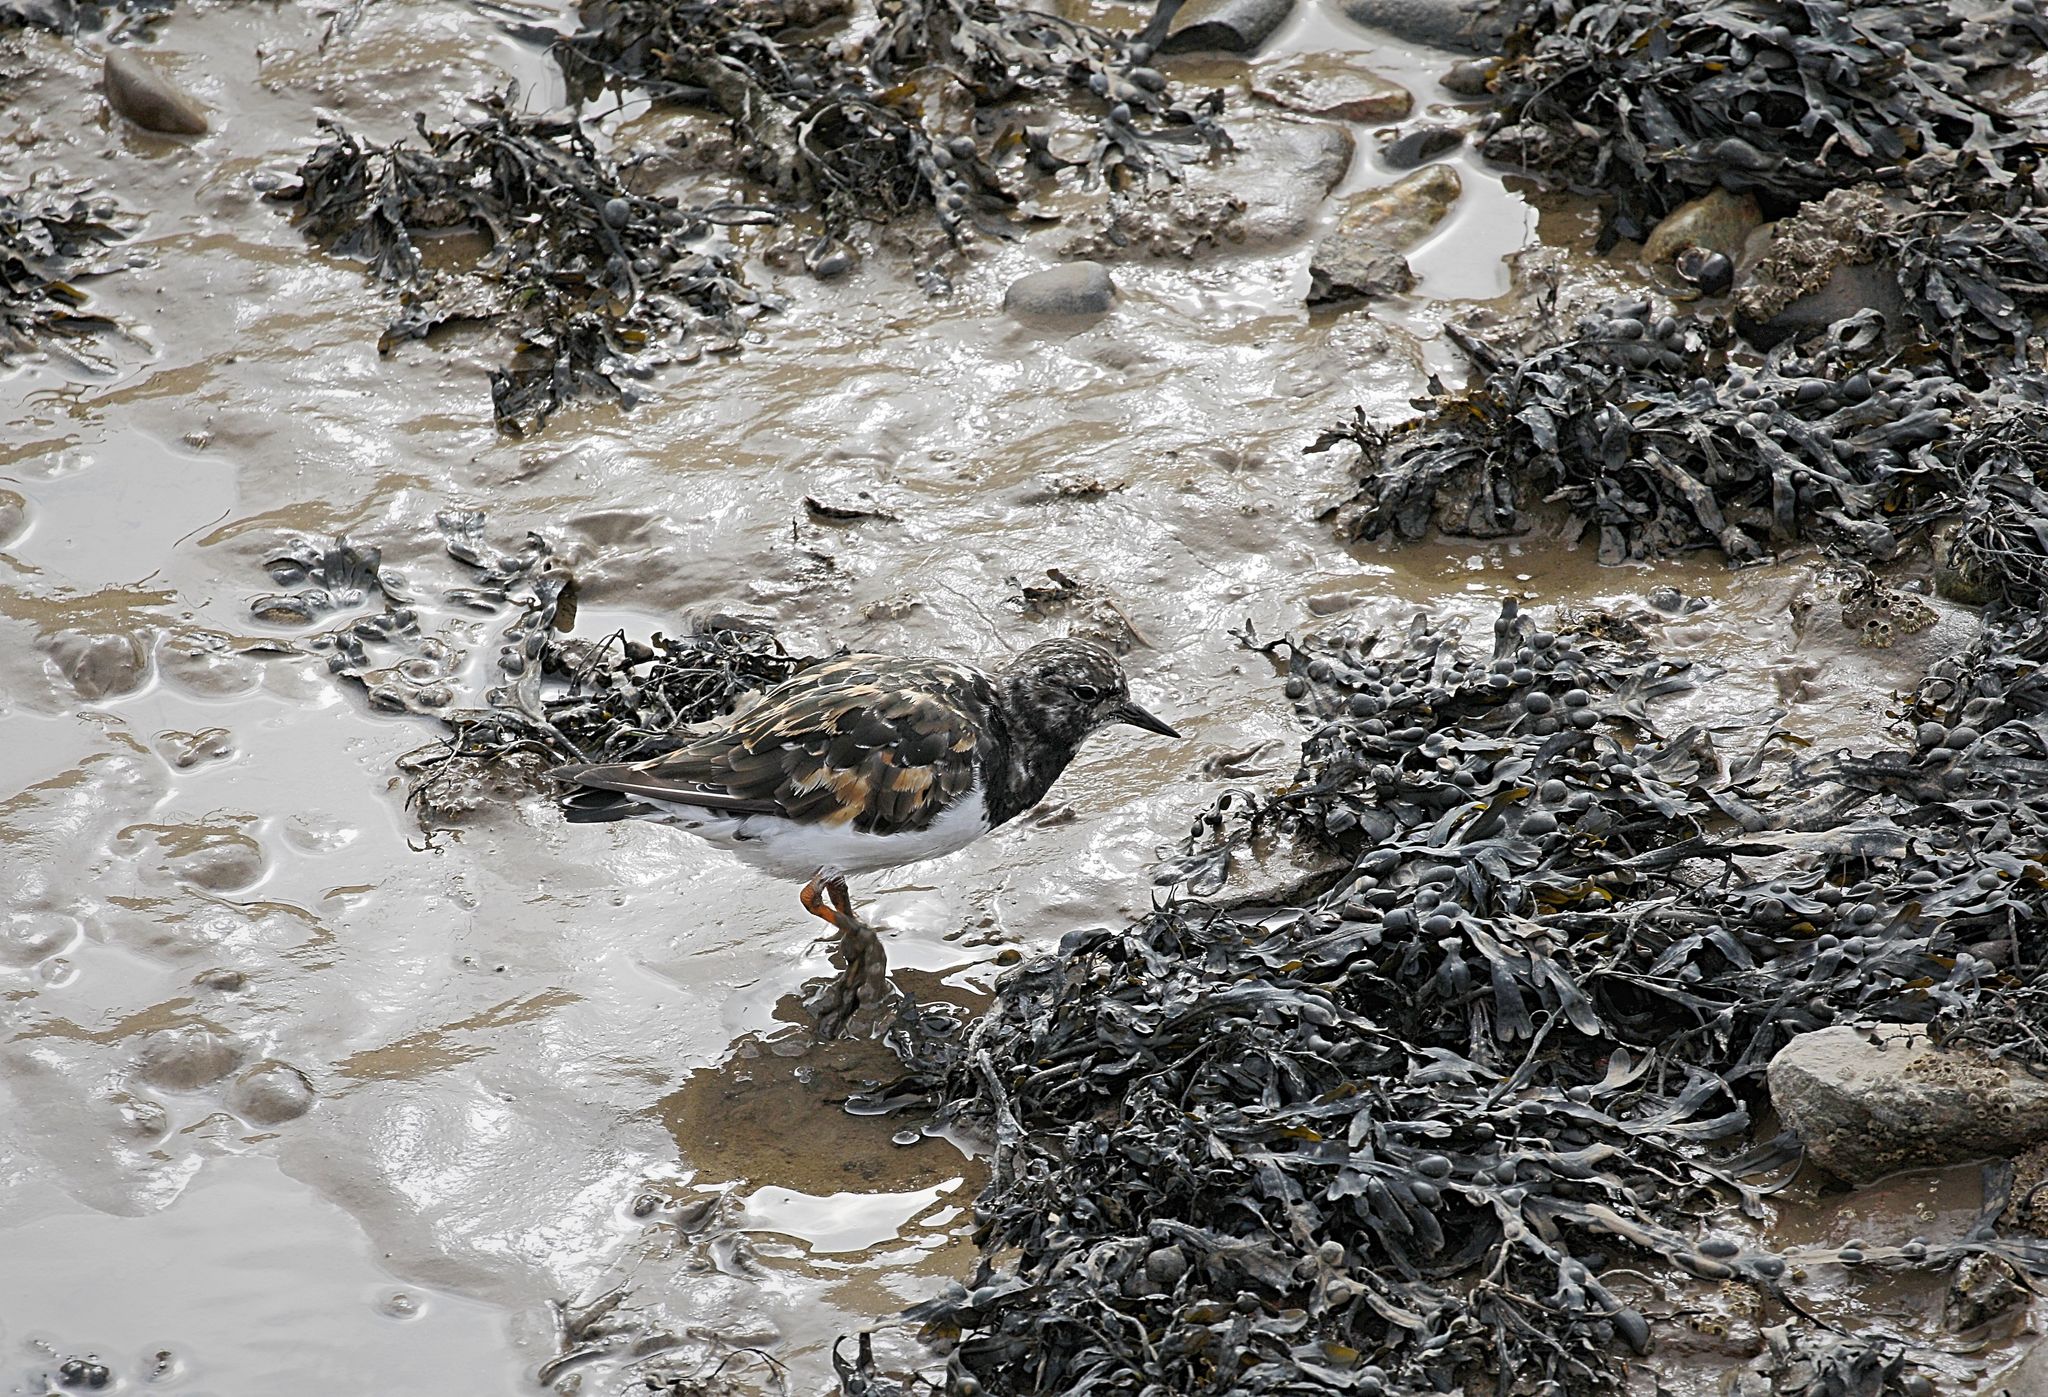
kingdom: Animalia
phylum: Chordata
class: Aves
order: Charadriiformes
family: Scolopacidae
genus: Arenaria
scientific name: Arenaria interpres
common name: Ruddy turnstone
